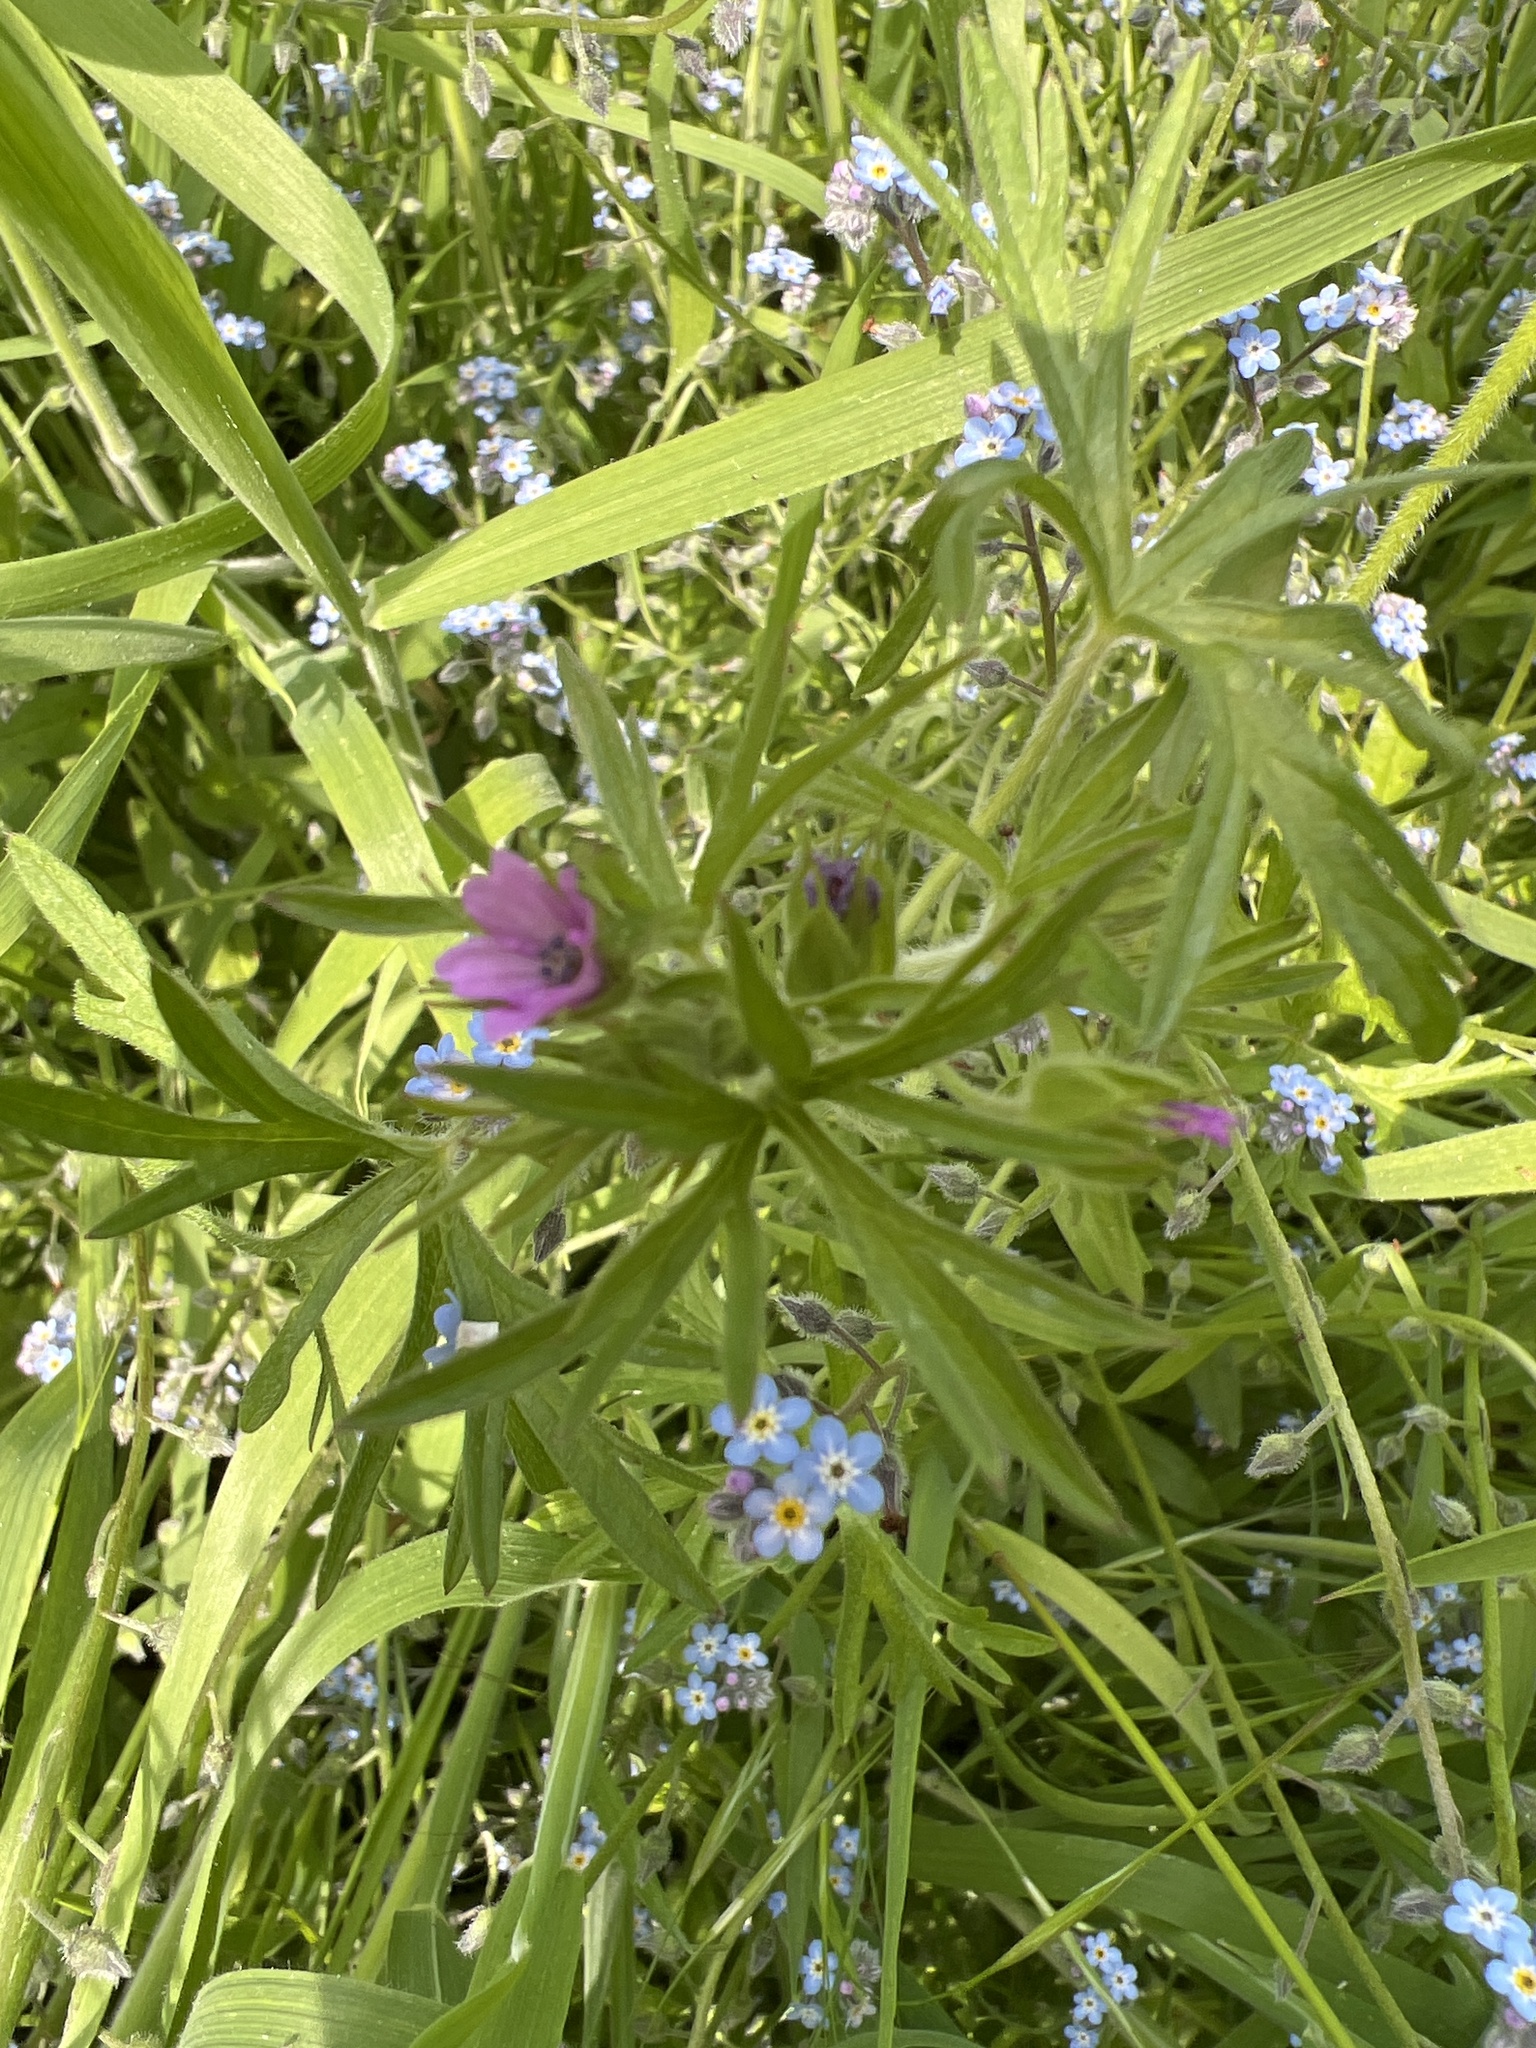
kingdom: Plantae
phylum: Tracheophyta
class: Magnoliopsida
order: Geraniales
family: Geraniaceae
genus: Geranium
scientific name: Geranium dissectum
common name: Cut-leaved crane's-bill
